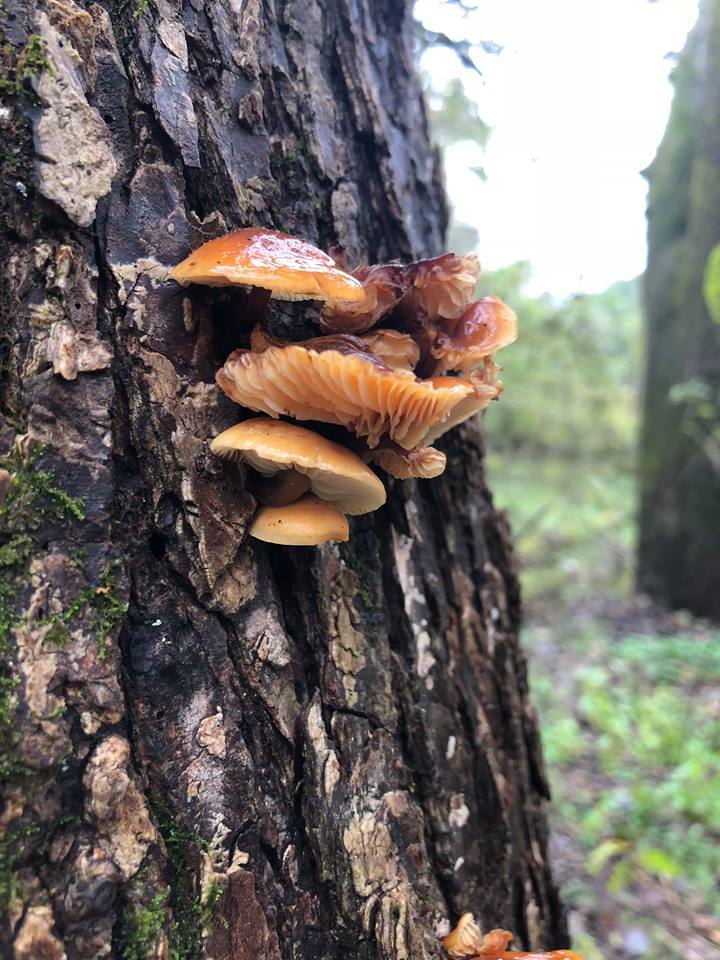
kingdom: Fungi
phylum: Basidiomycota
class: Agaricomycetes
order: Agaricales
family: Physalacriaceae
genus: Flammulina
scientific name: Flammulina velutipes
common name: Velvet shank
